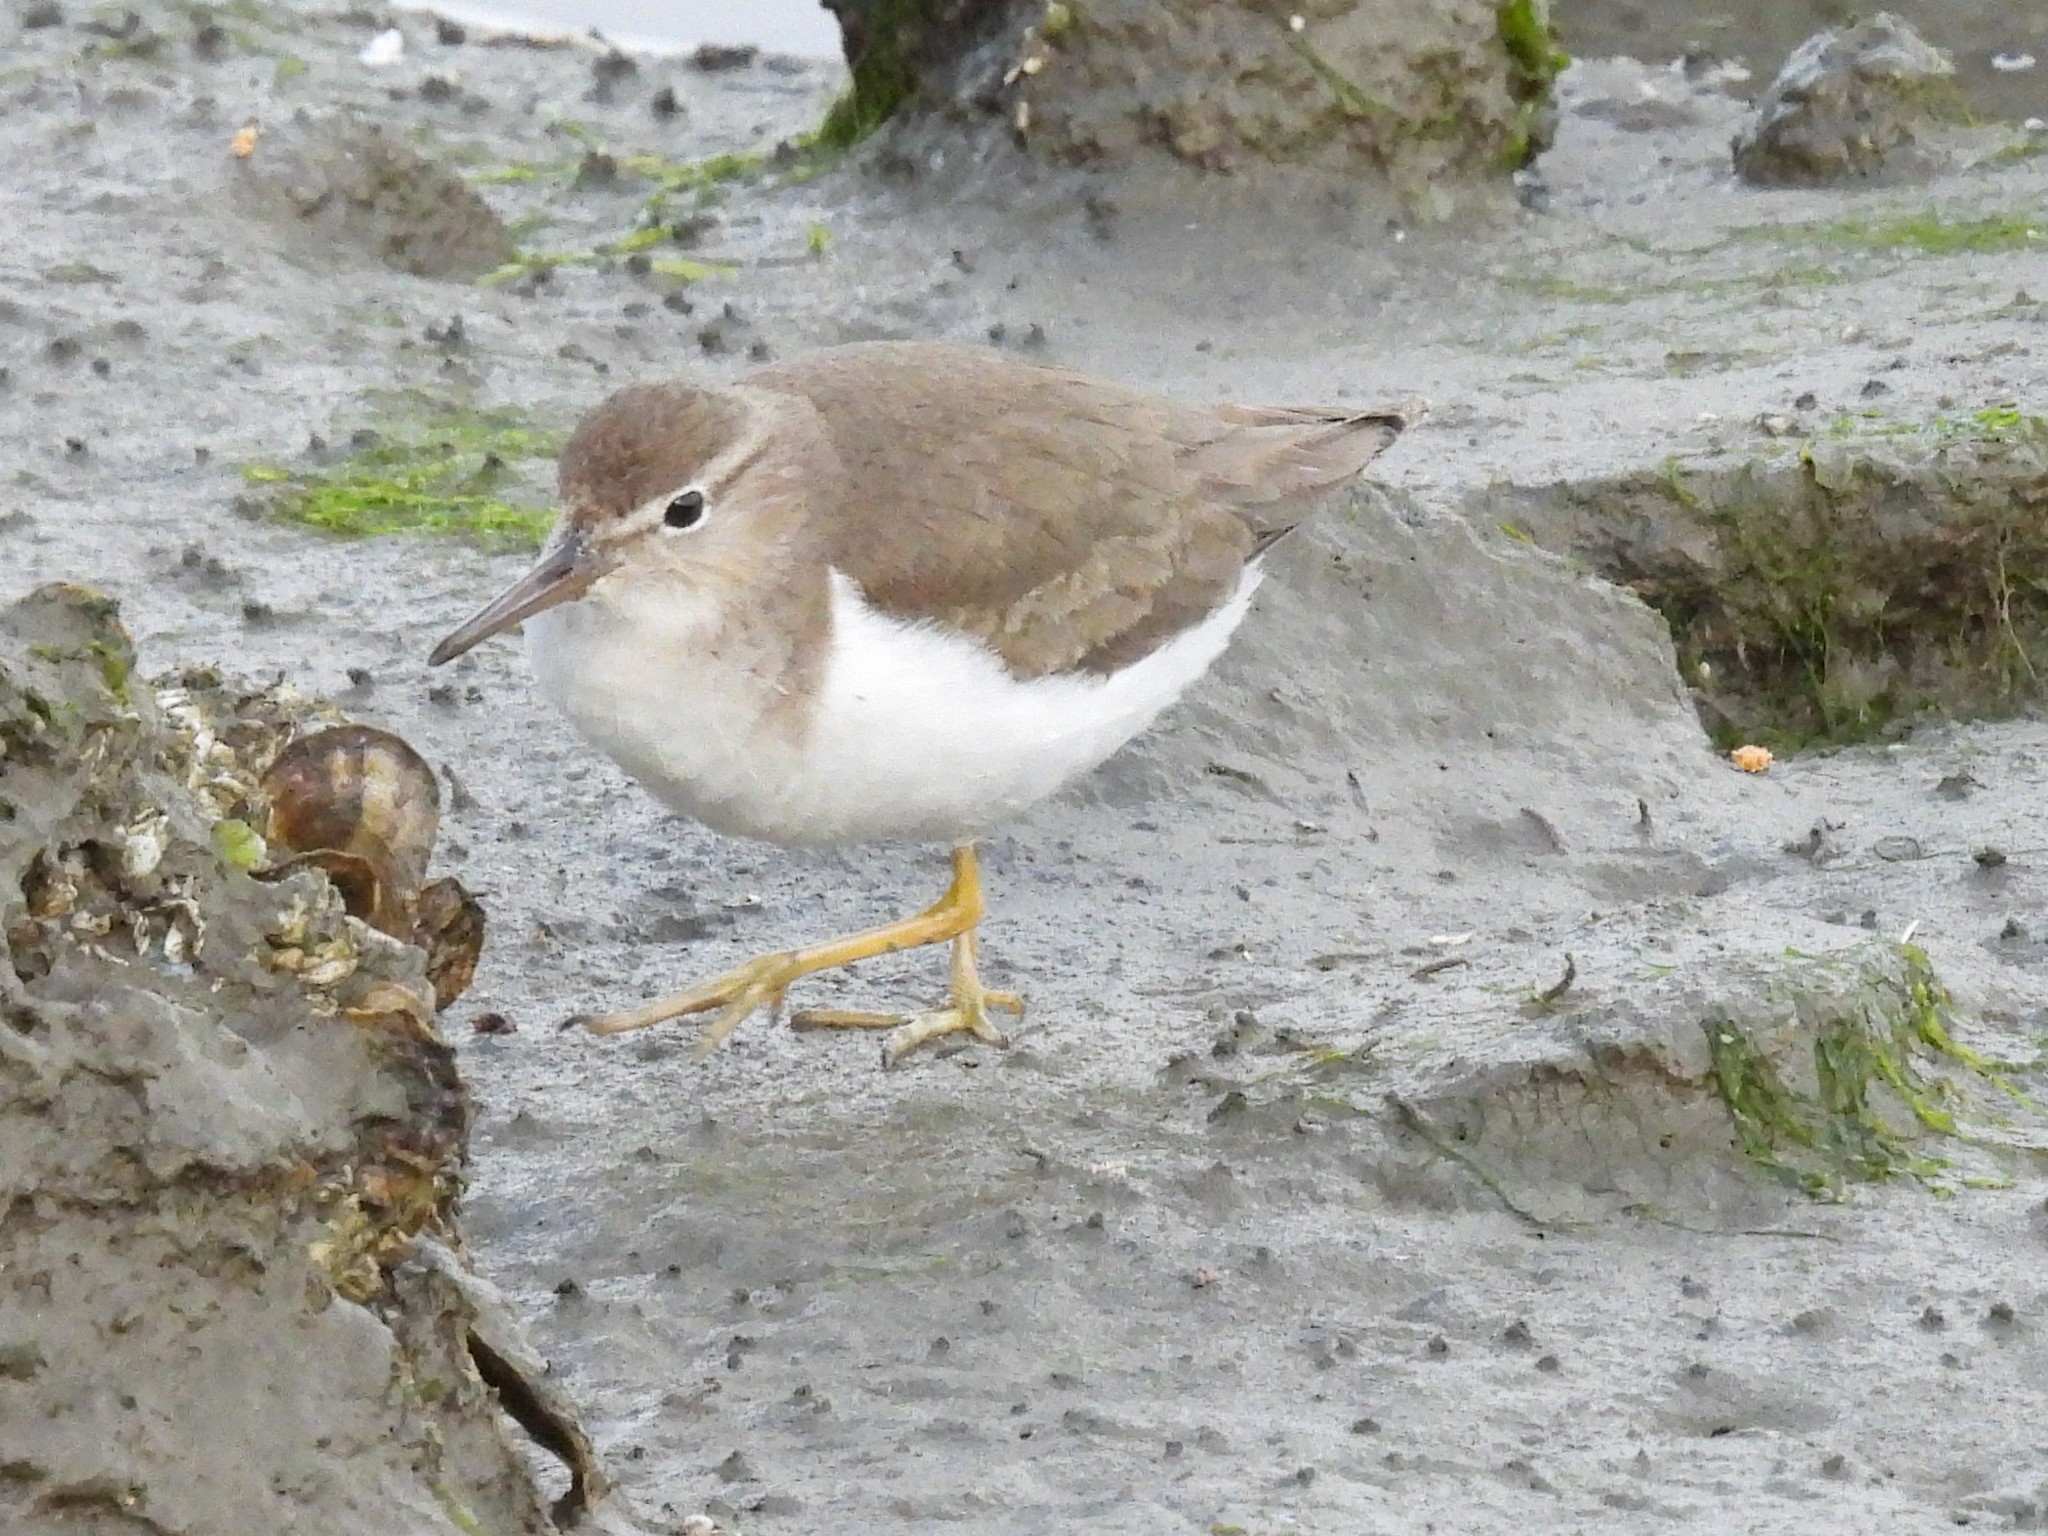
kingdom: Animalia
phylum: Chordata
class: Aves
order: Charadriiformes
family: Scolopacidae
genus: Actitis
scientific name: Actitis macularius
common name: Spotted sandpiper
